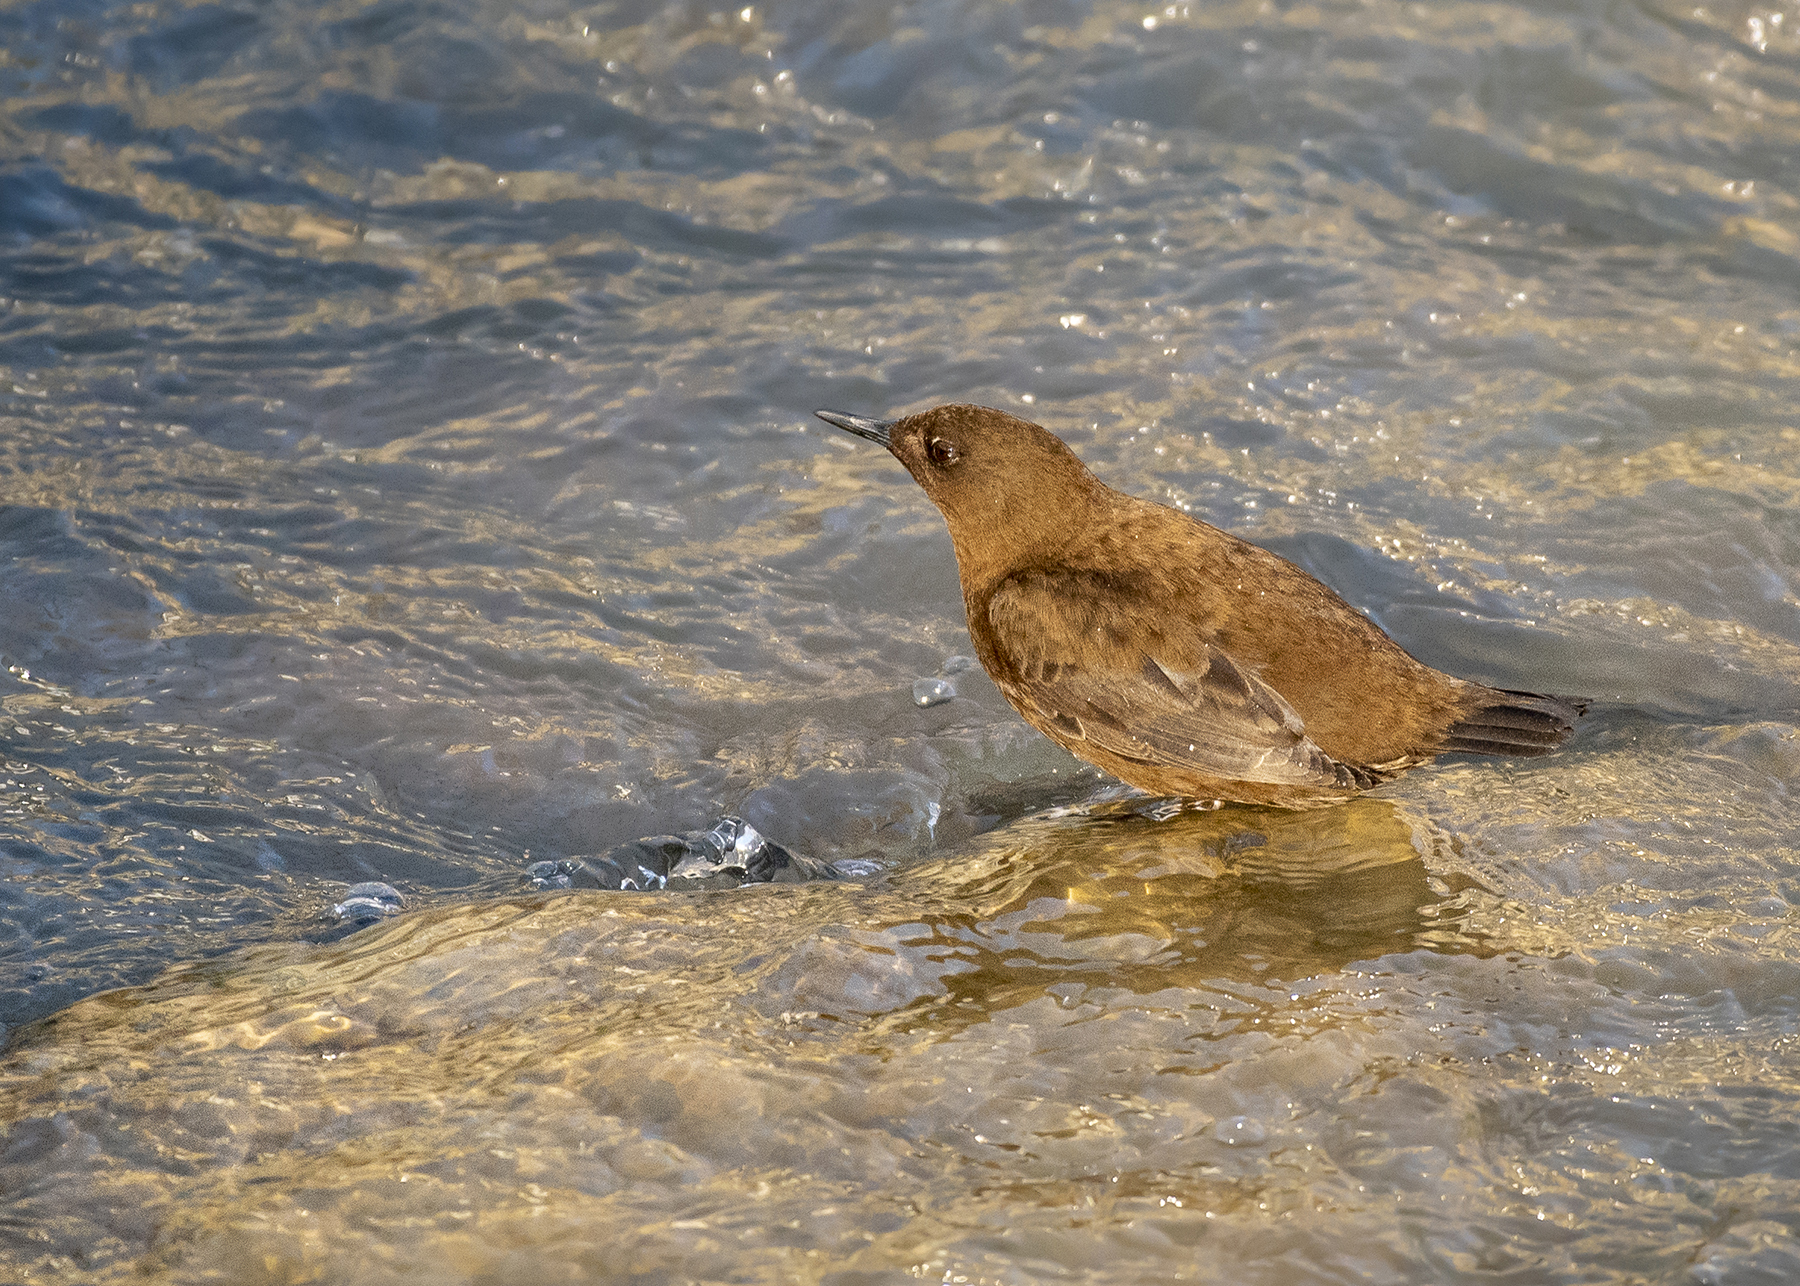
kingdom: Animalia
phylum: Chordata
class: Aves
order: Passeriformes
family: Cinclidae
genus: Cinclus
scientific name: Cinclus pallasii
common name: Brown dipper
